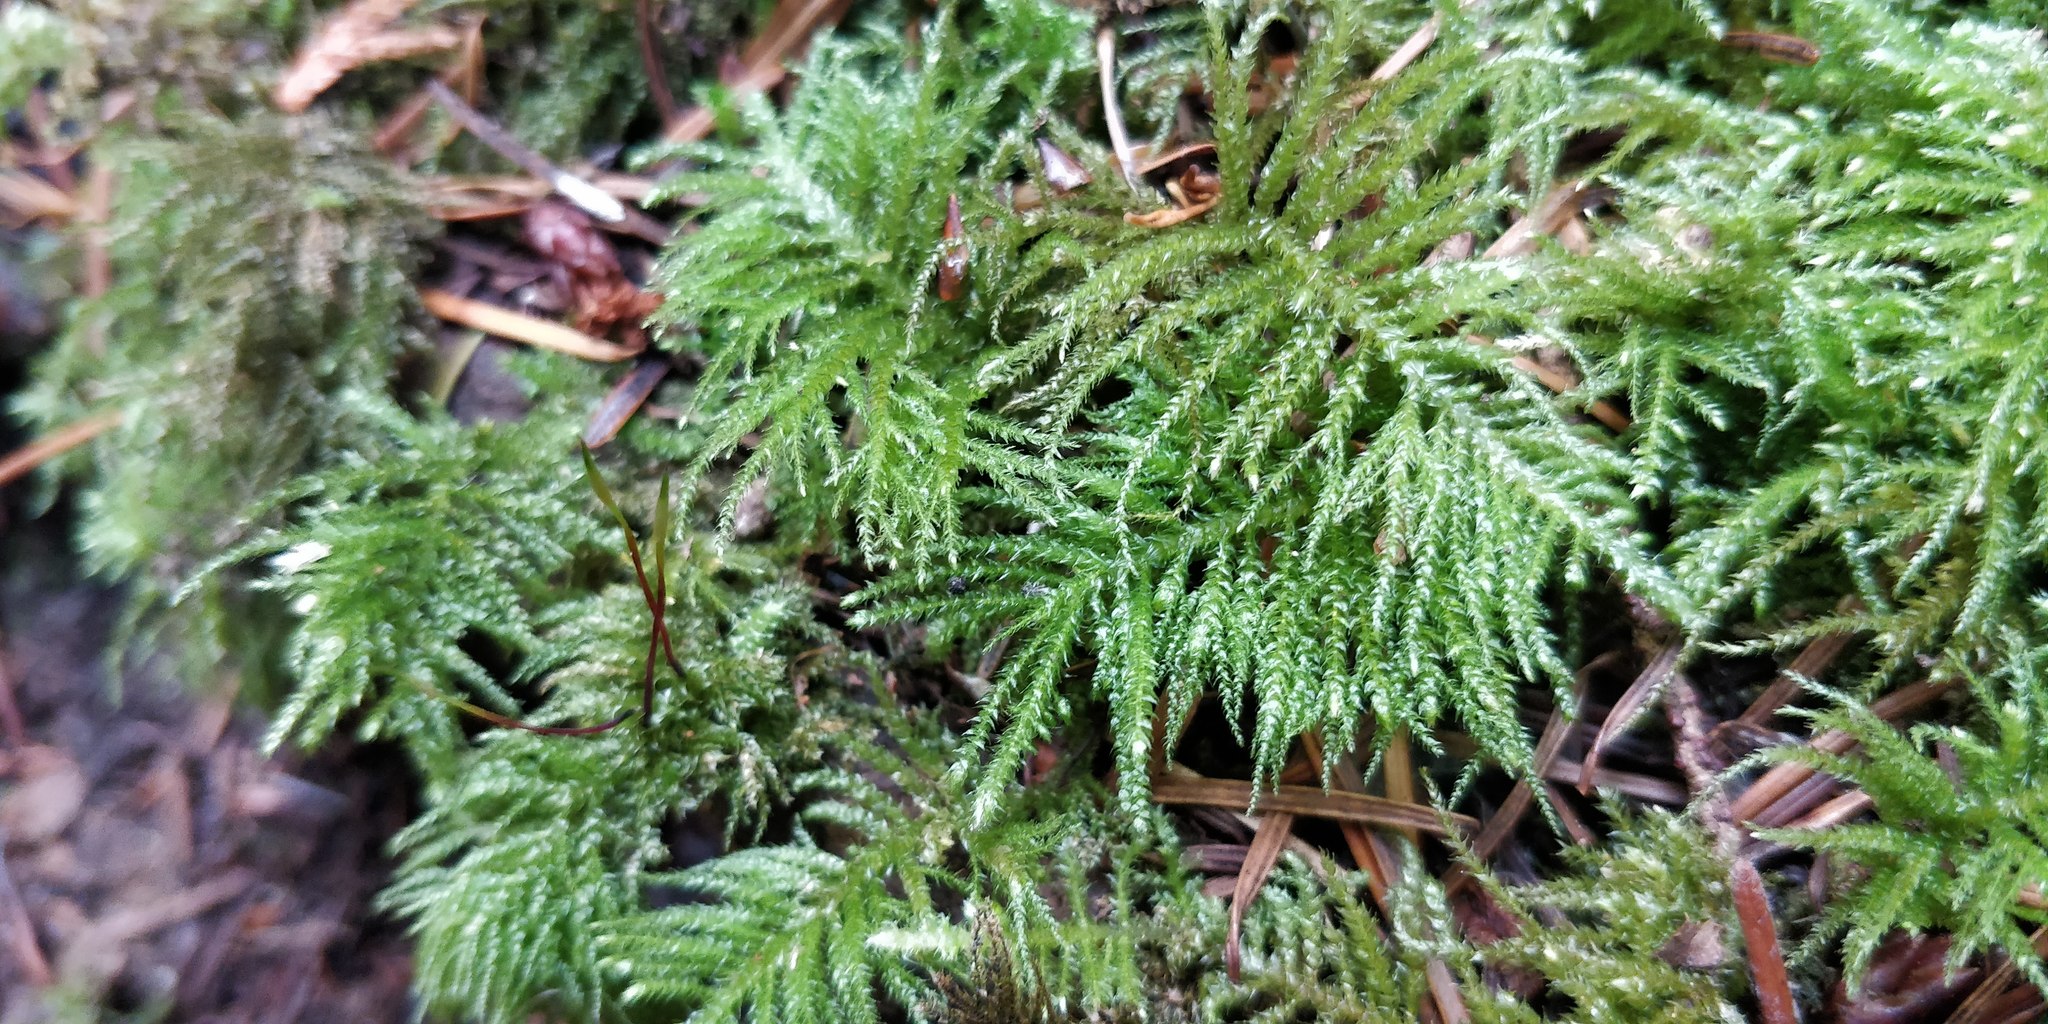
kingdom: Plantae
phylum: Bryophyta
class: Bryopsida
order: Hypnales
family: Brachytheciaceae
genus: Kindbergia
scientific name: Kindbergia oregana
